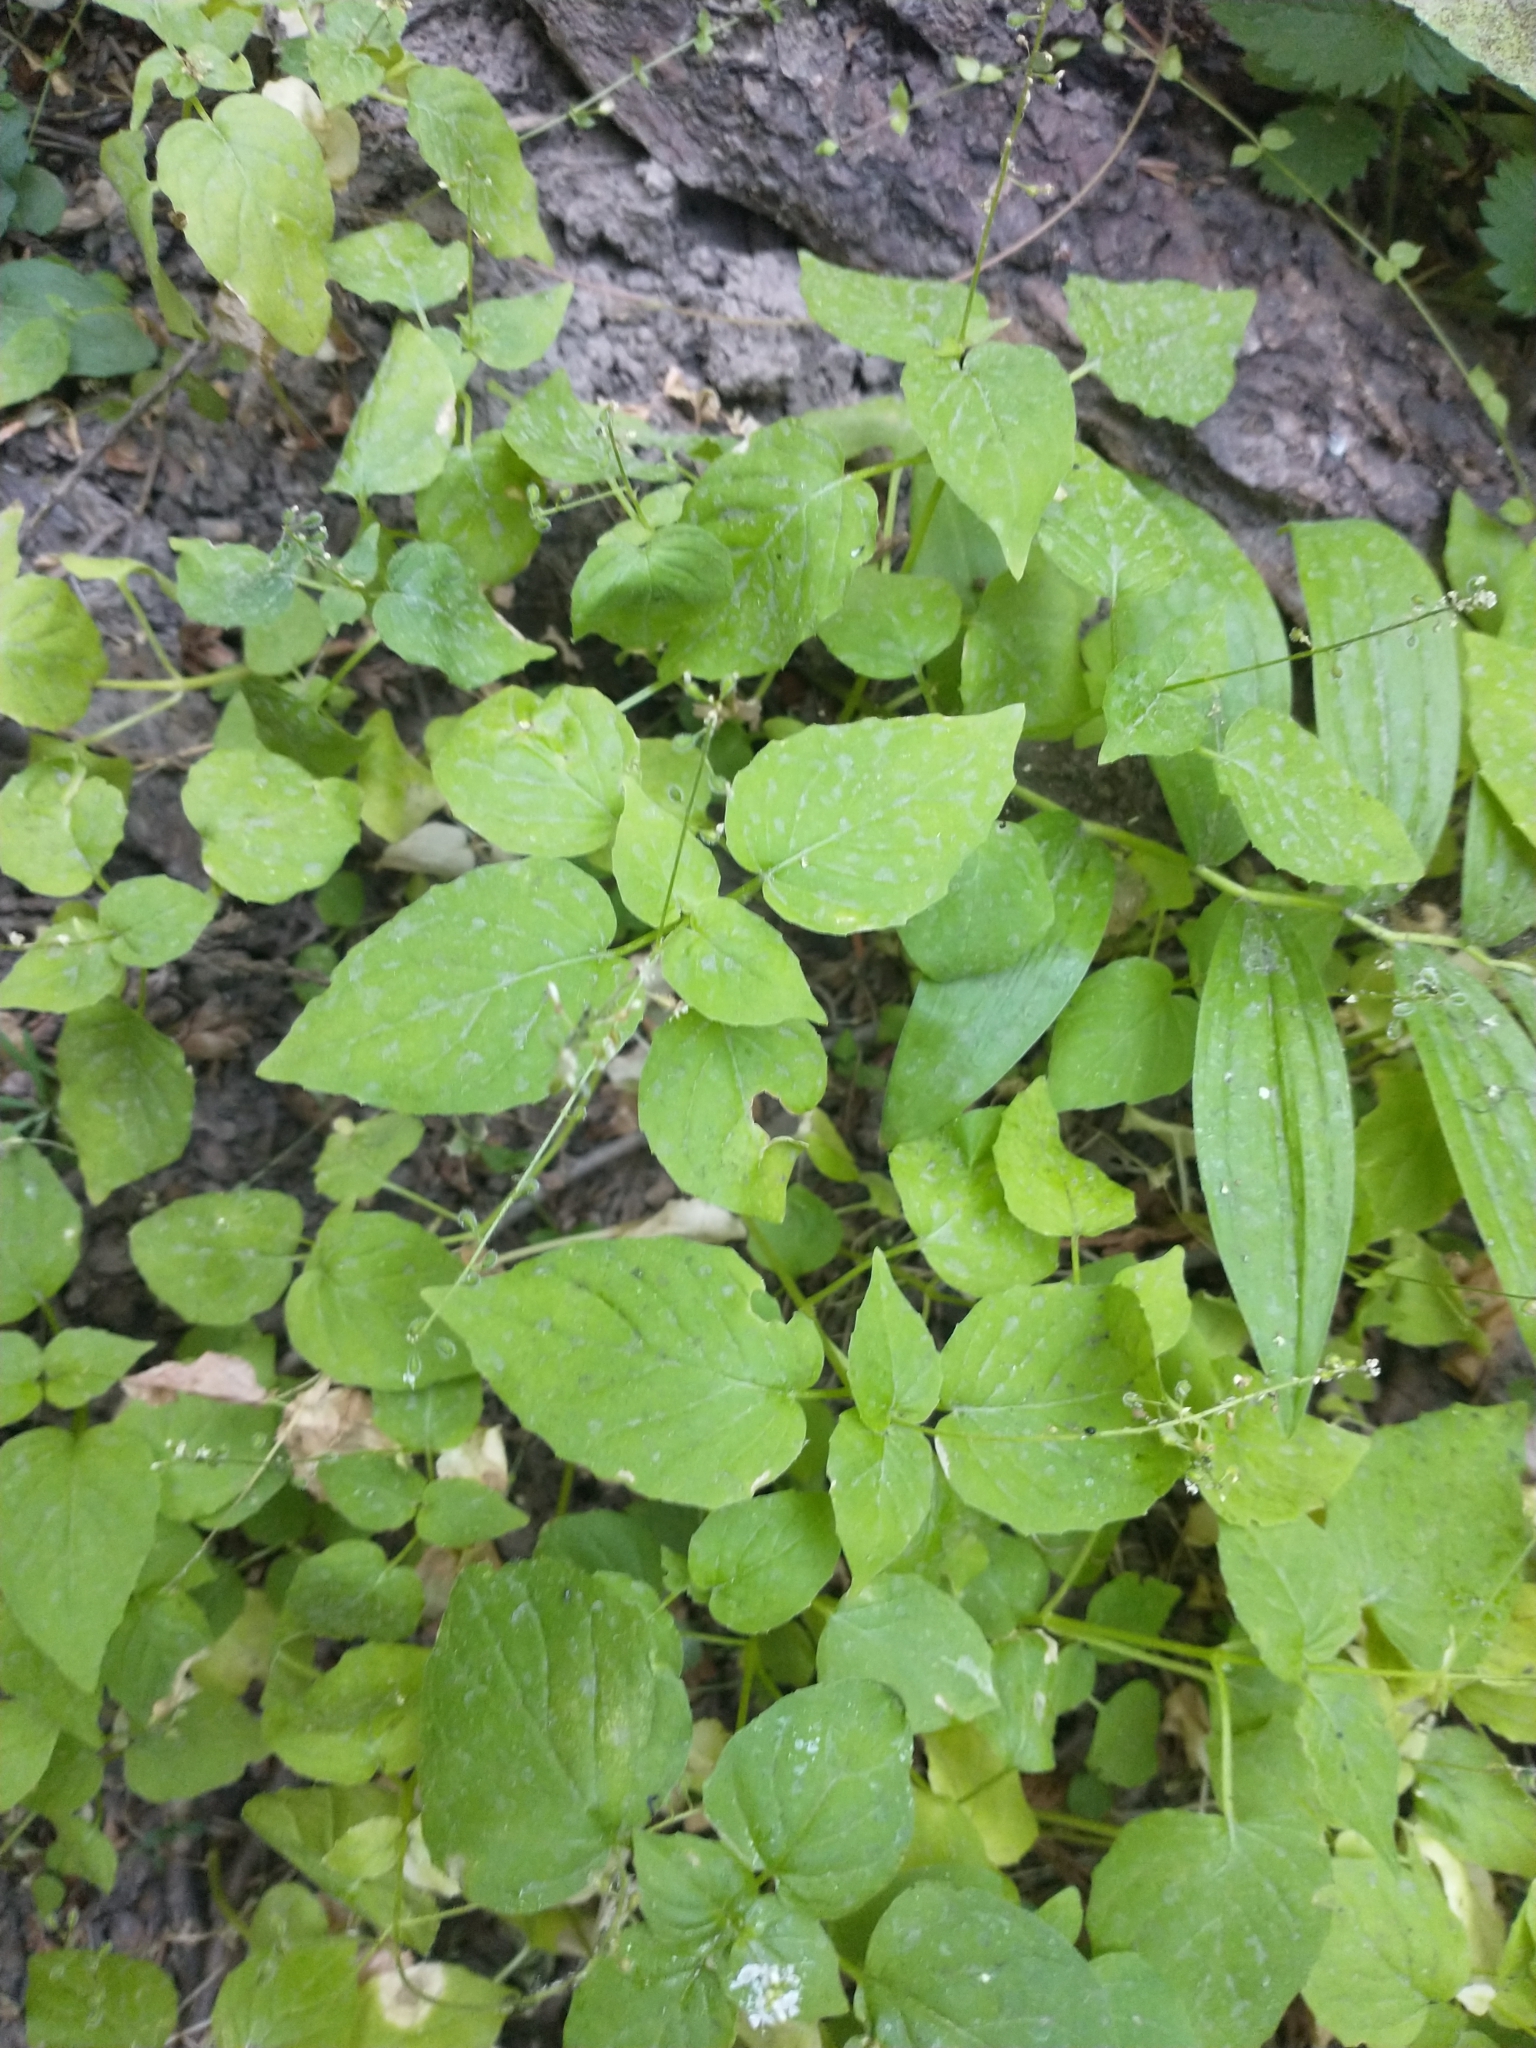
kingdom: Plantae
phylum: Tracheophyta
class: Magnoliopsida
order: Myrtales
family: Onagraceae
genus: Circaea
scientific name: Circaea alpina
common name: Alpine enchanter's-nightshade
